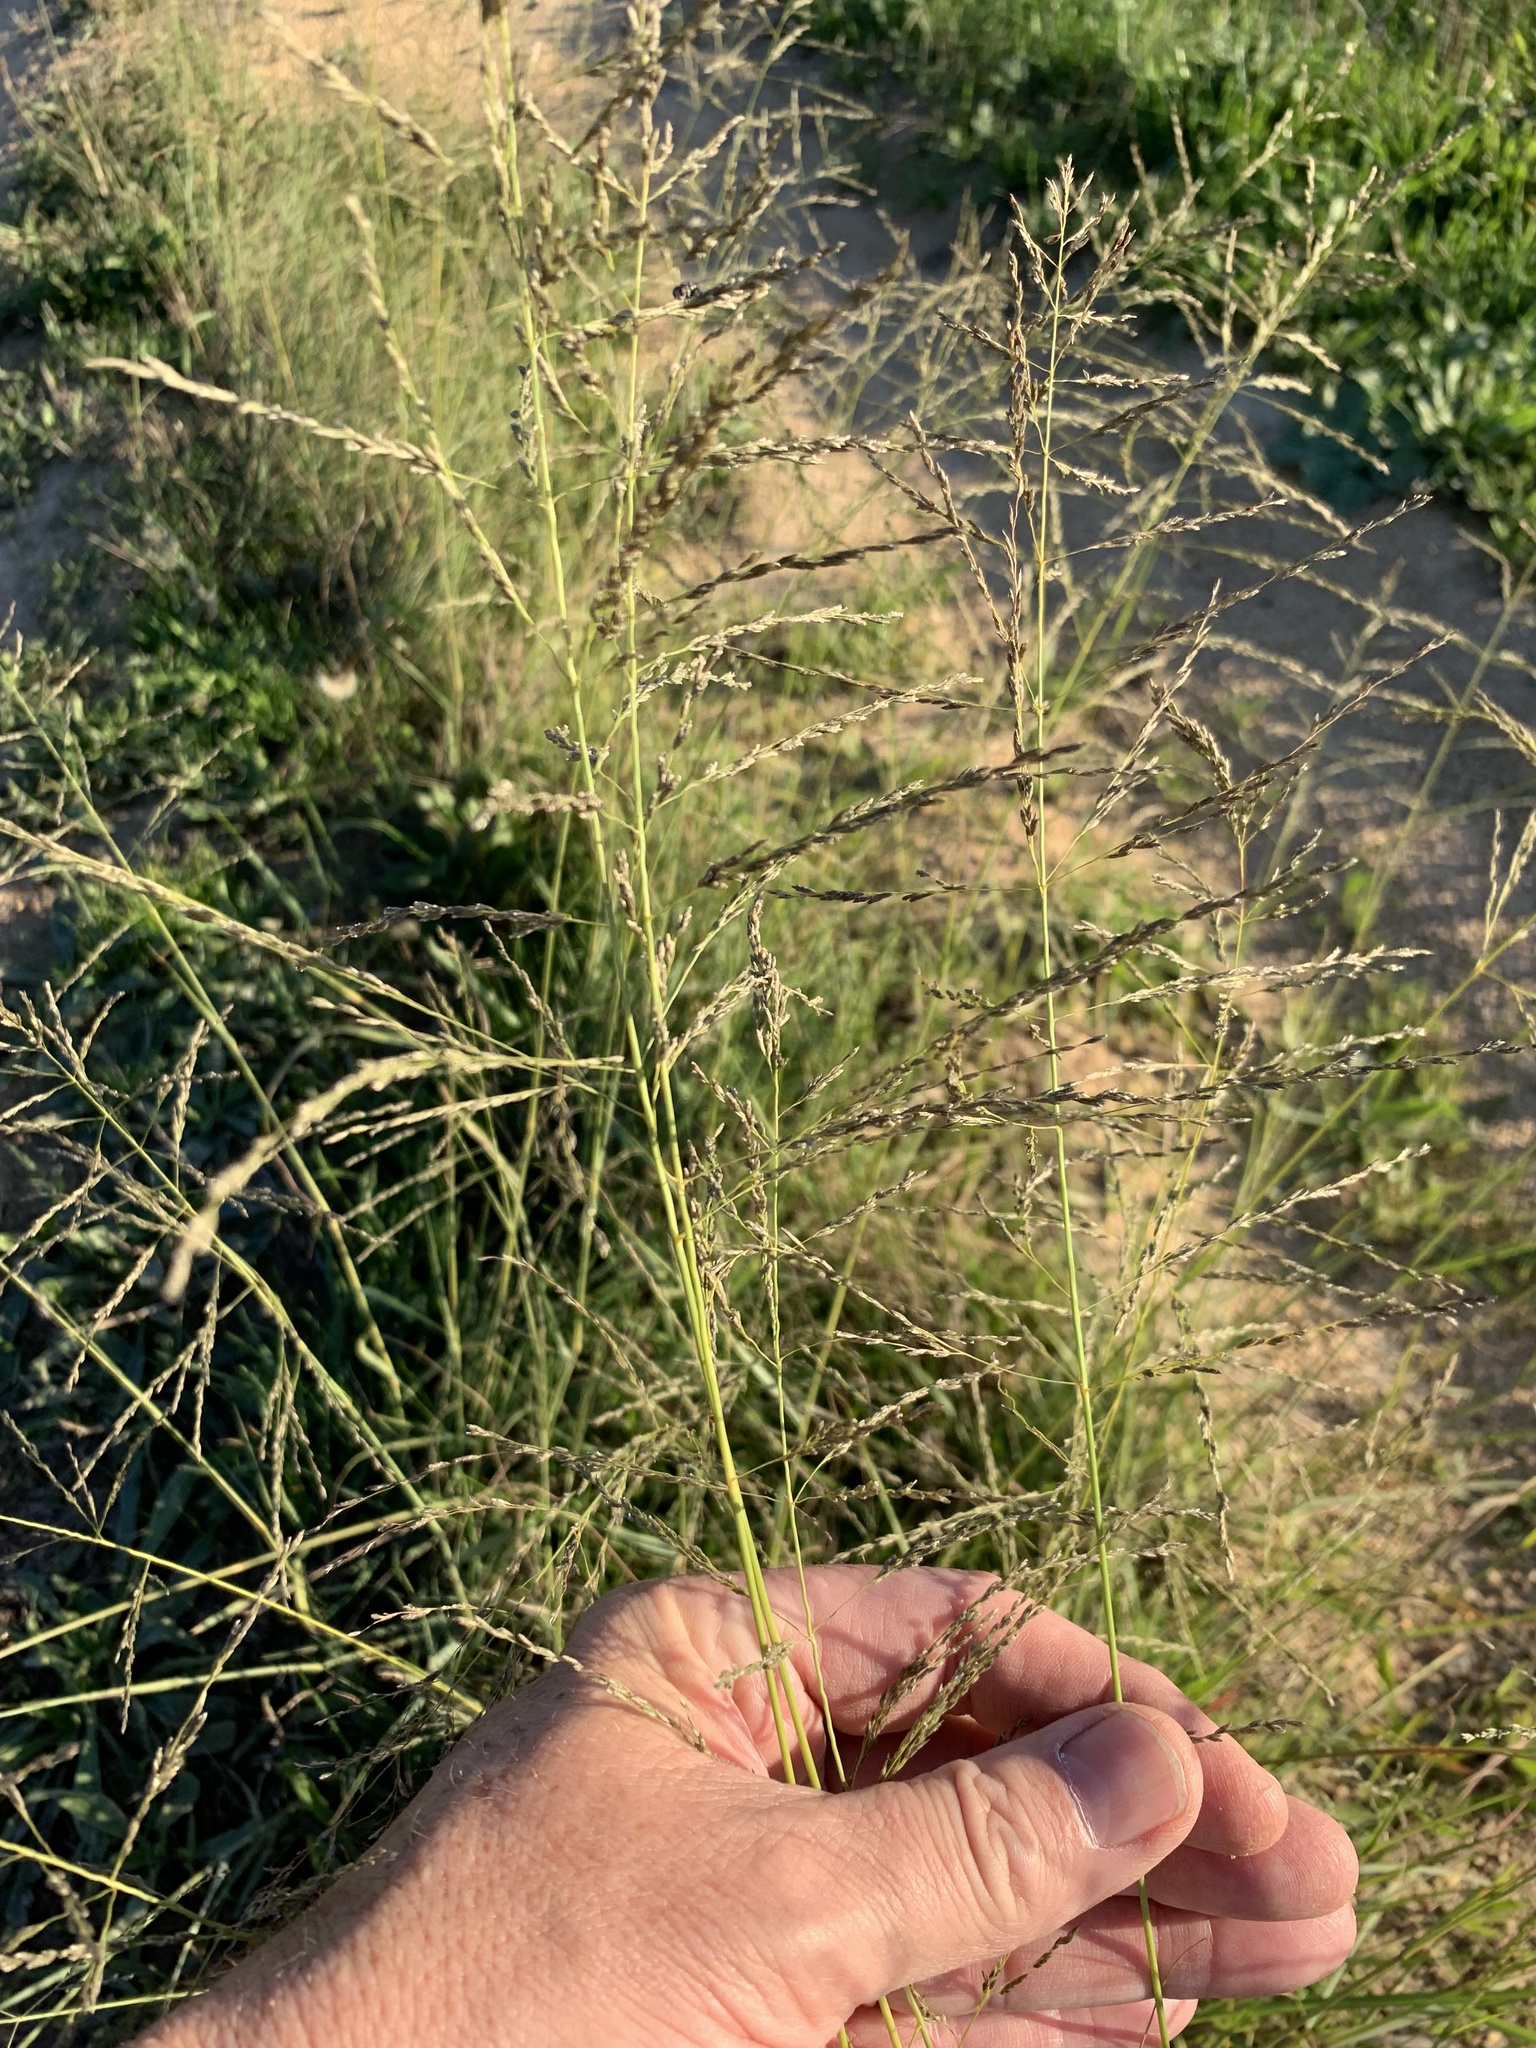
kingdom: Plantae
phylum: Tracheophyta
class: Liliopsida
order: Poales
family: Poaceae
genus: Eragrostis
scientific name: Eragrostis curvula
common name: African love-grass
